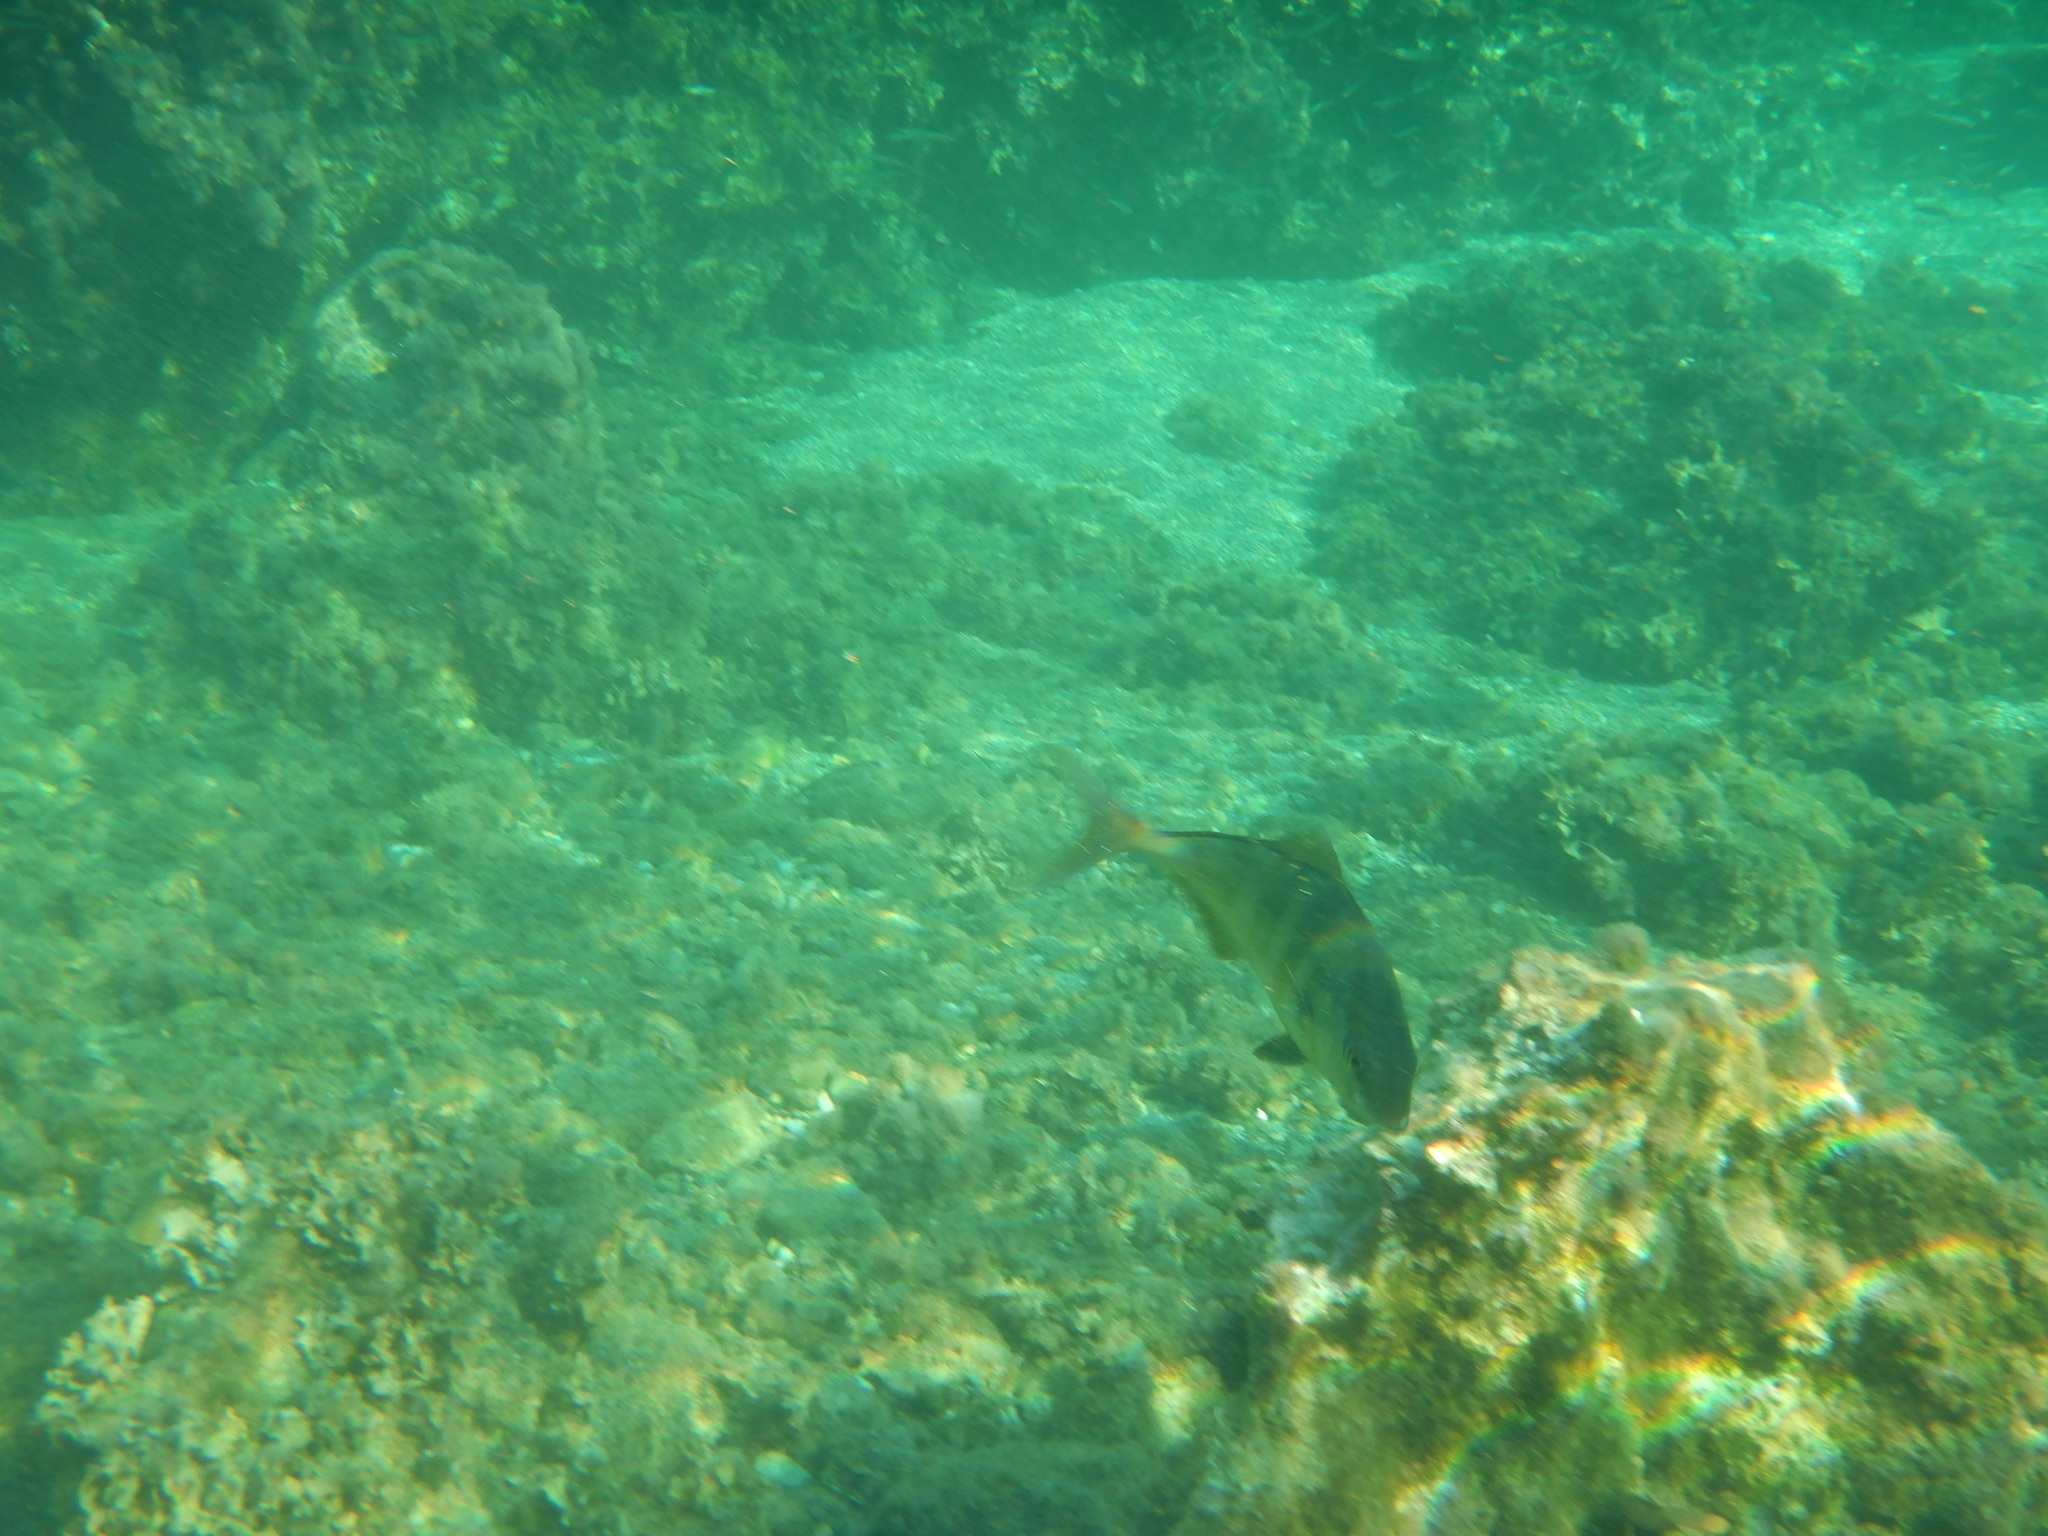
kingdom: Animalia
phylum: Chordata
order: Perciformes
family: Carangidae
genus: Seriola
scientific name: Seriola dumerili
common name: Greater amberjack
